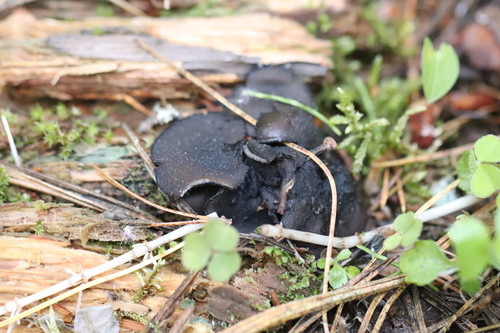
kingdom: Fungi
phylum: Ascomycota
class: Pezizomycetes
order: Pezizales
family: Sarcosomataceae
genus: Pseudoplectania
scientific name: Pseudoplectania nigrella
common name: Ebony cup
